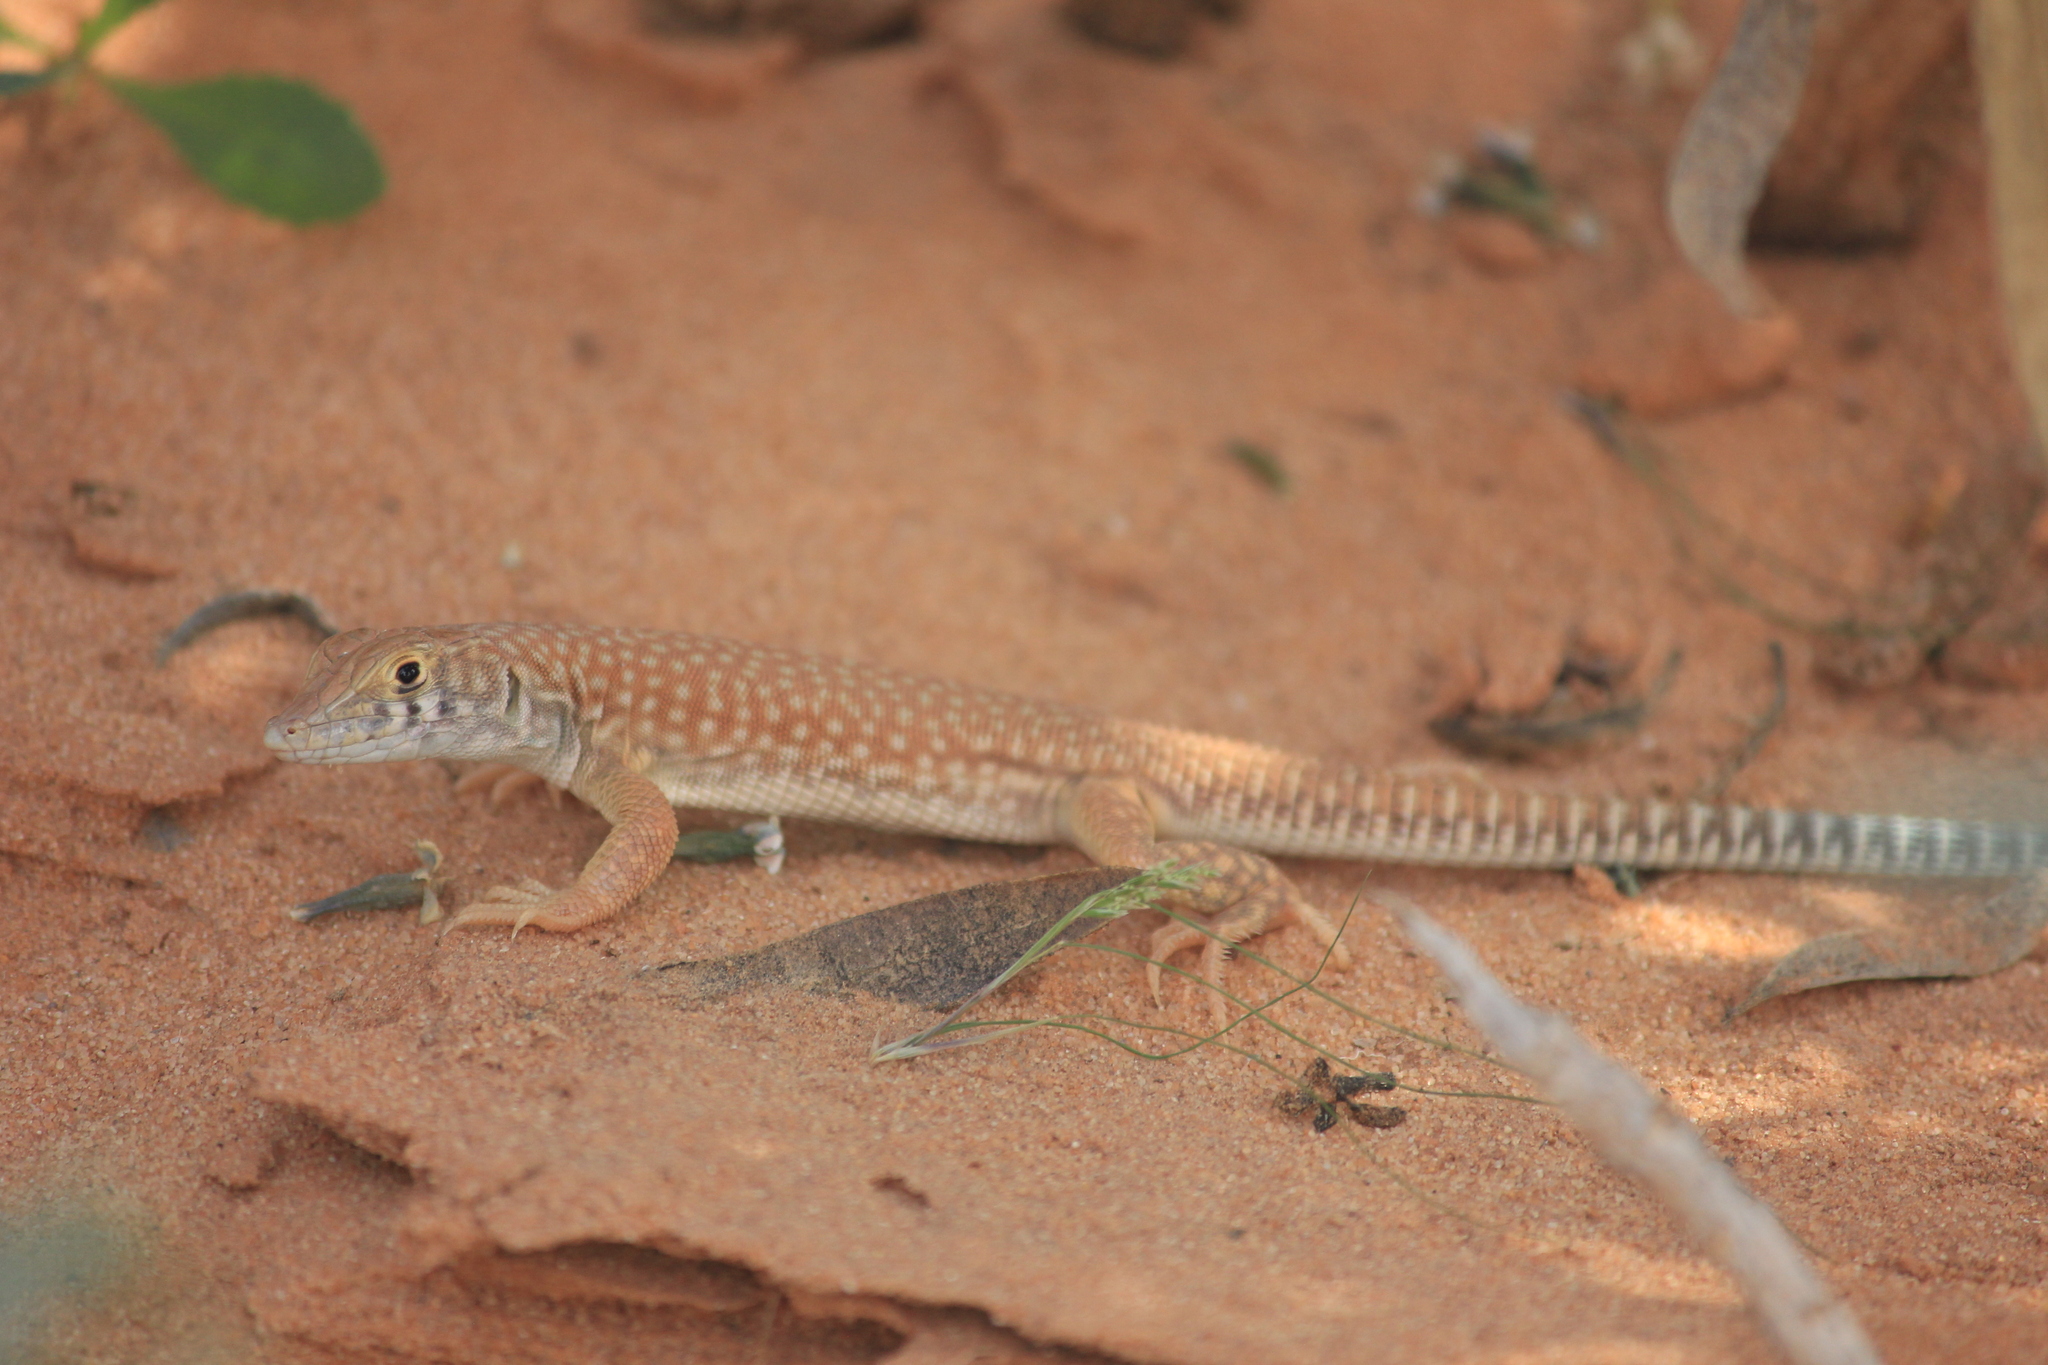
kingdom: Animalia
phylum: Chordata
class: Squamata
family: Lacertidae
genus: Acanthodactylus
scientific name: Acanthodactylus schmidti
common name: Schmidt's fringe-toed lizard
